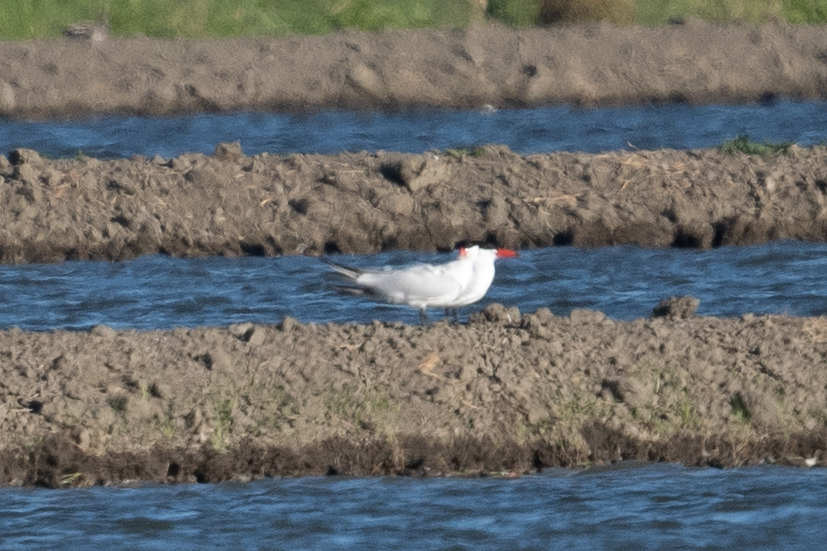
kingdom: Animalia
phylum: Chordata
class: Aves
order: Charadriiformes
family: Laridae
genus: Hydroprogne
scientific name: Hydroprogne caspia
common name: Caspian tern
